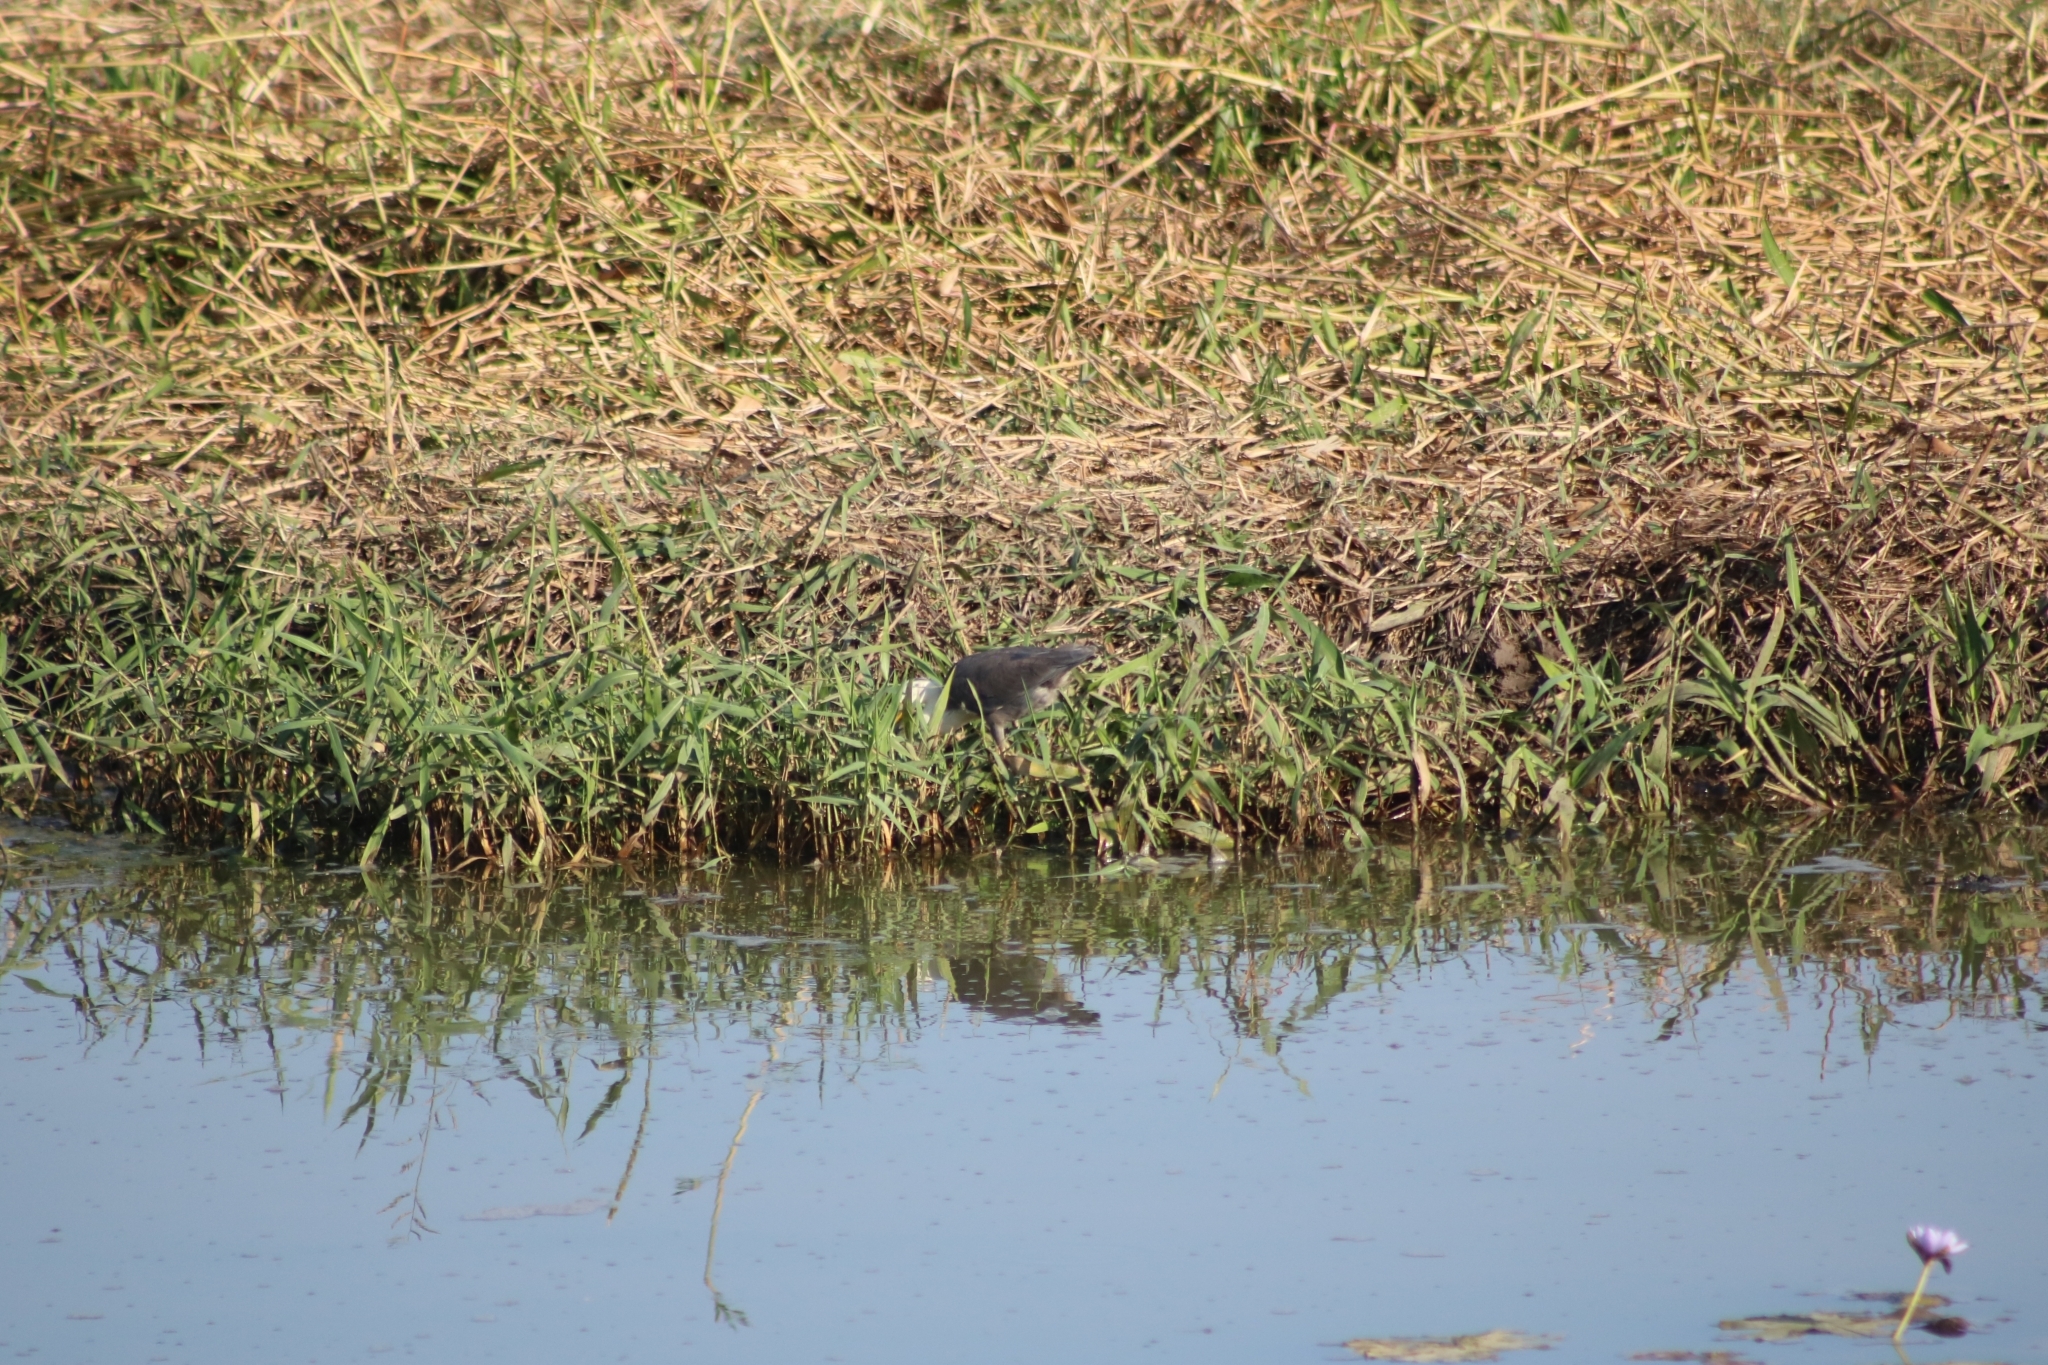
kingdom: Animalia
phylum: Chordata
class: Aves
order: Pelecaniformes
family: Ardeidae
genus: Egretta
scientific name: Egretta picata
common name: Pied heron
